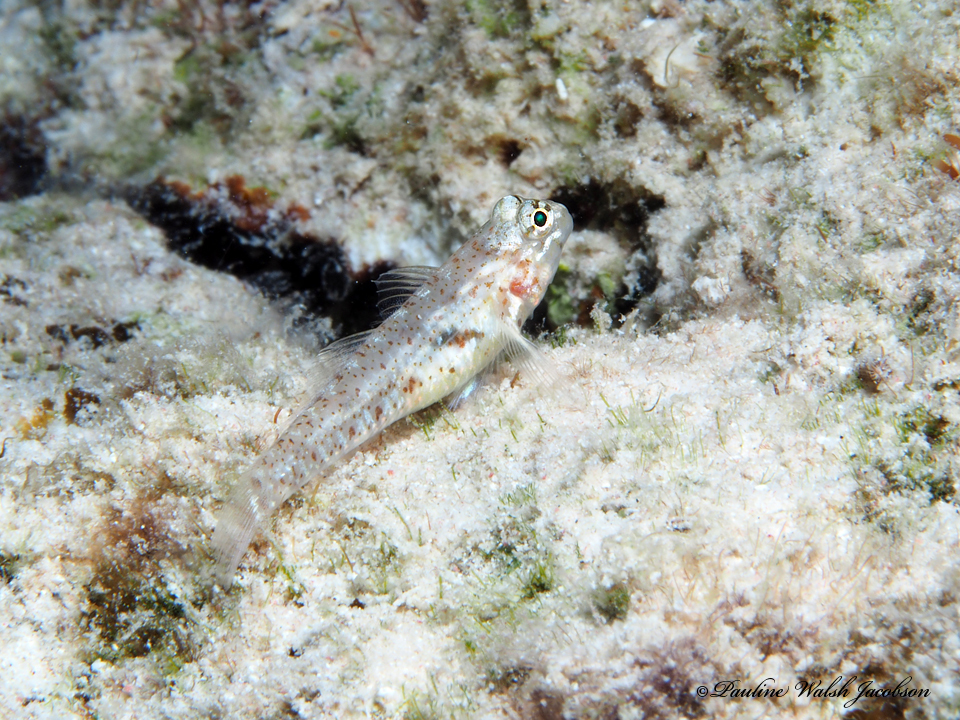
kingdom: Animalia
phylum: Chordata
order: Perciformes
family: Gobiidae
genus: Coryphopterus
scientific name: Coryphopterus dicrus
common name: Colon goby
